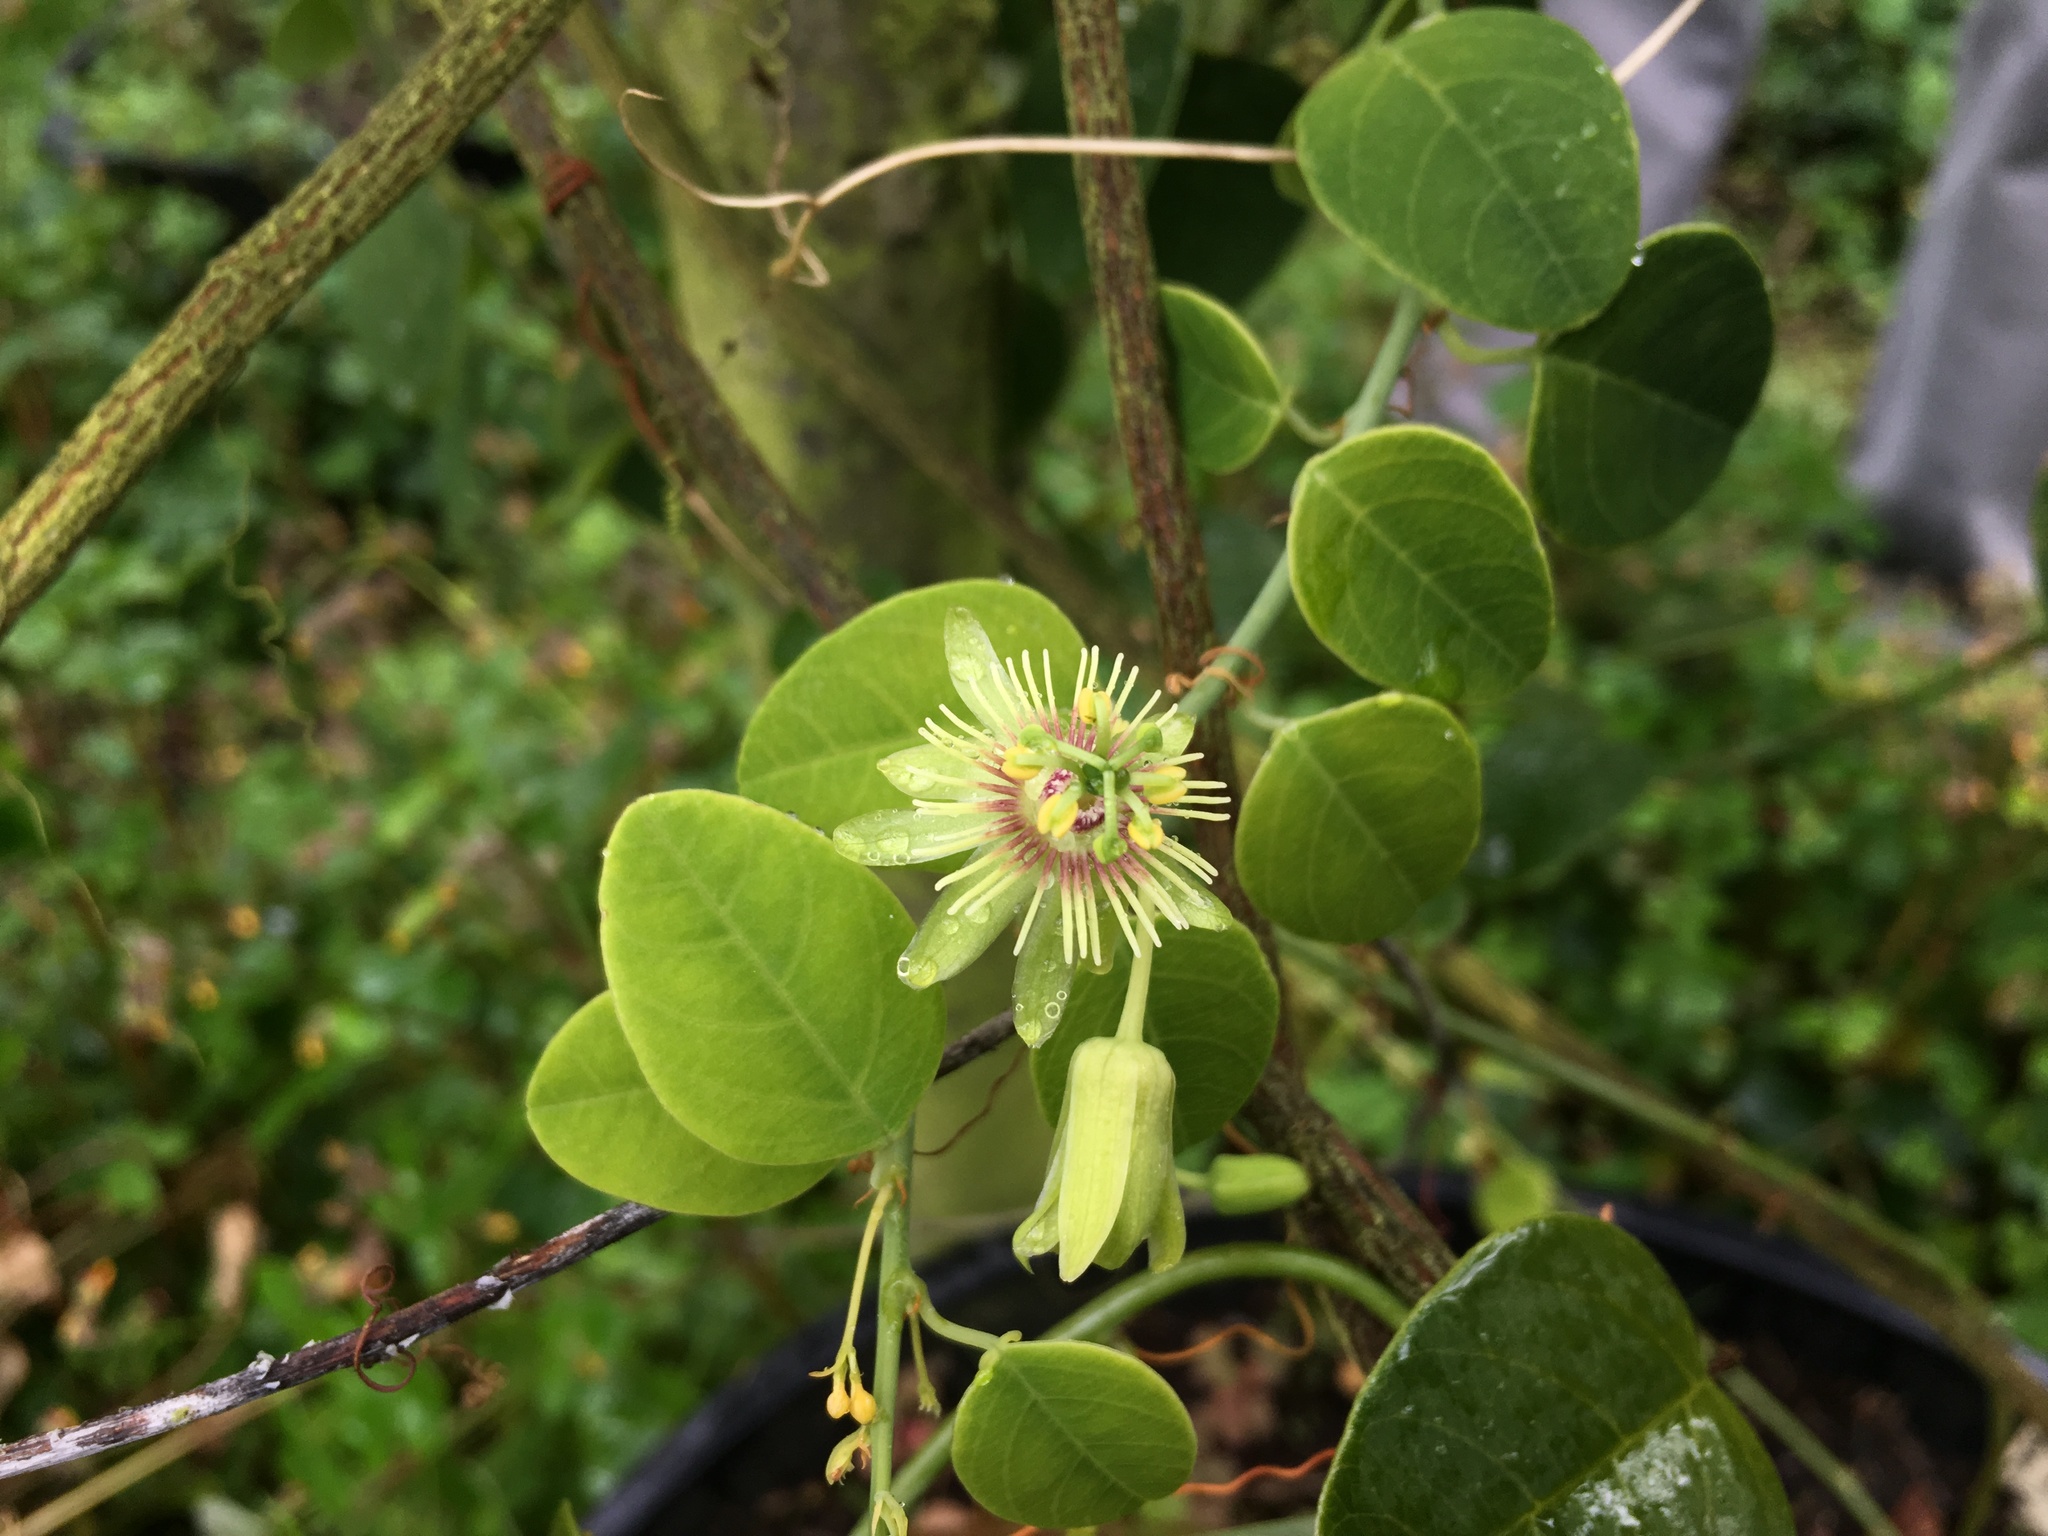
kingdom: Plantae
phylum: Tracheophyta
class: Magnoliopsida
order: Malpighiales
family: Passifloraceae
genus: Passiflora
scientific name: Passiflora gracillima
